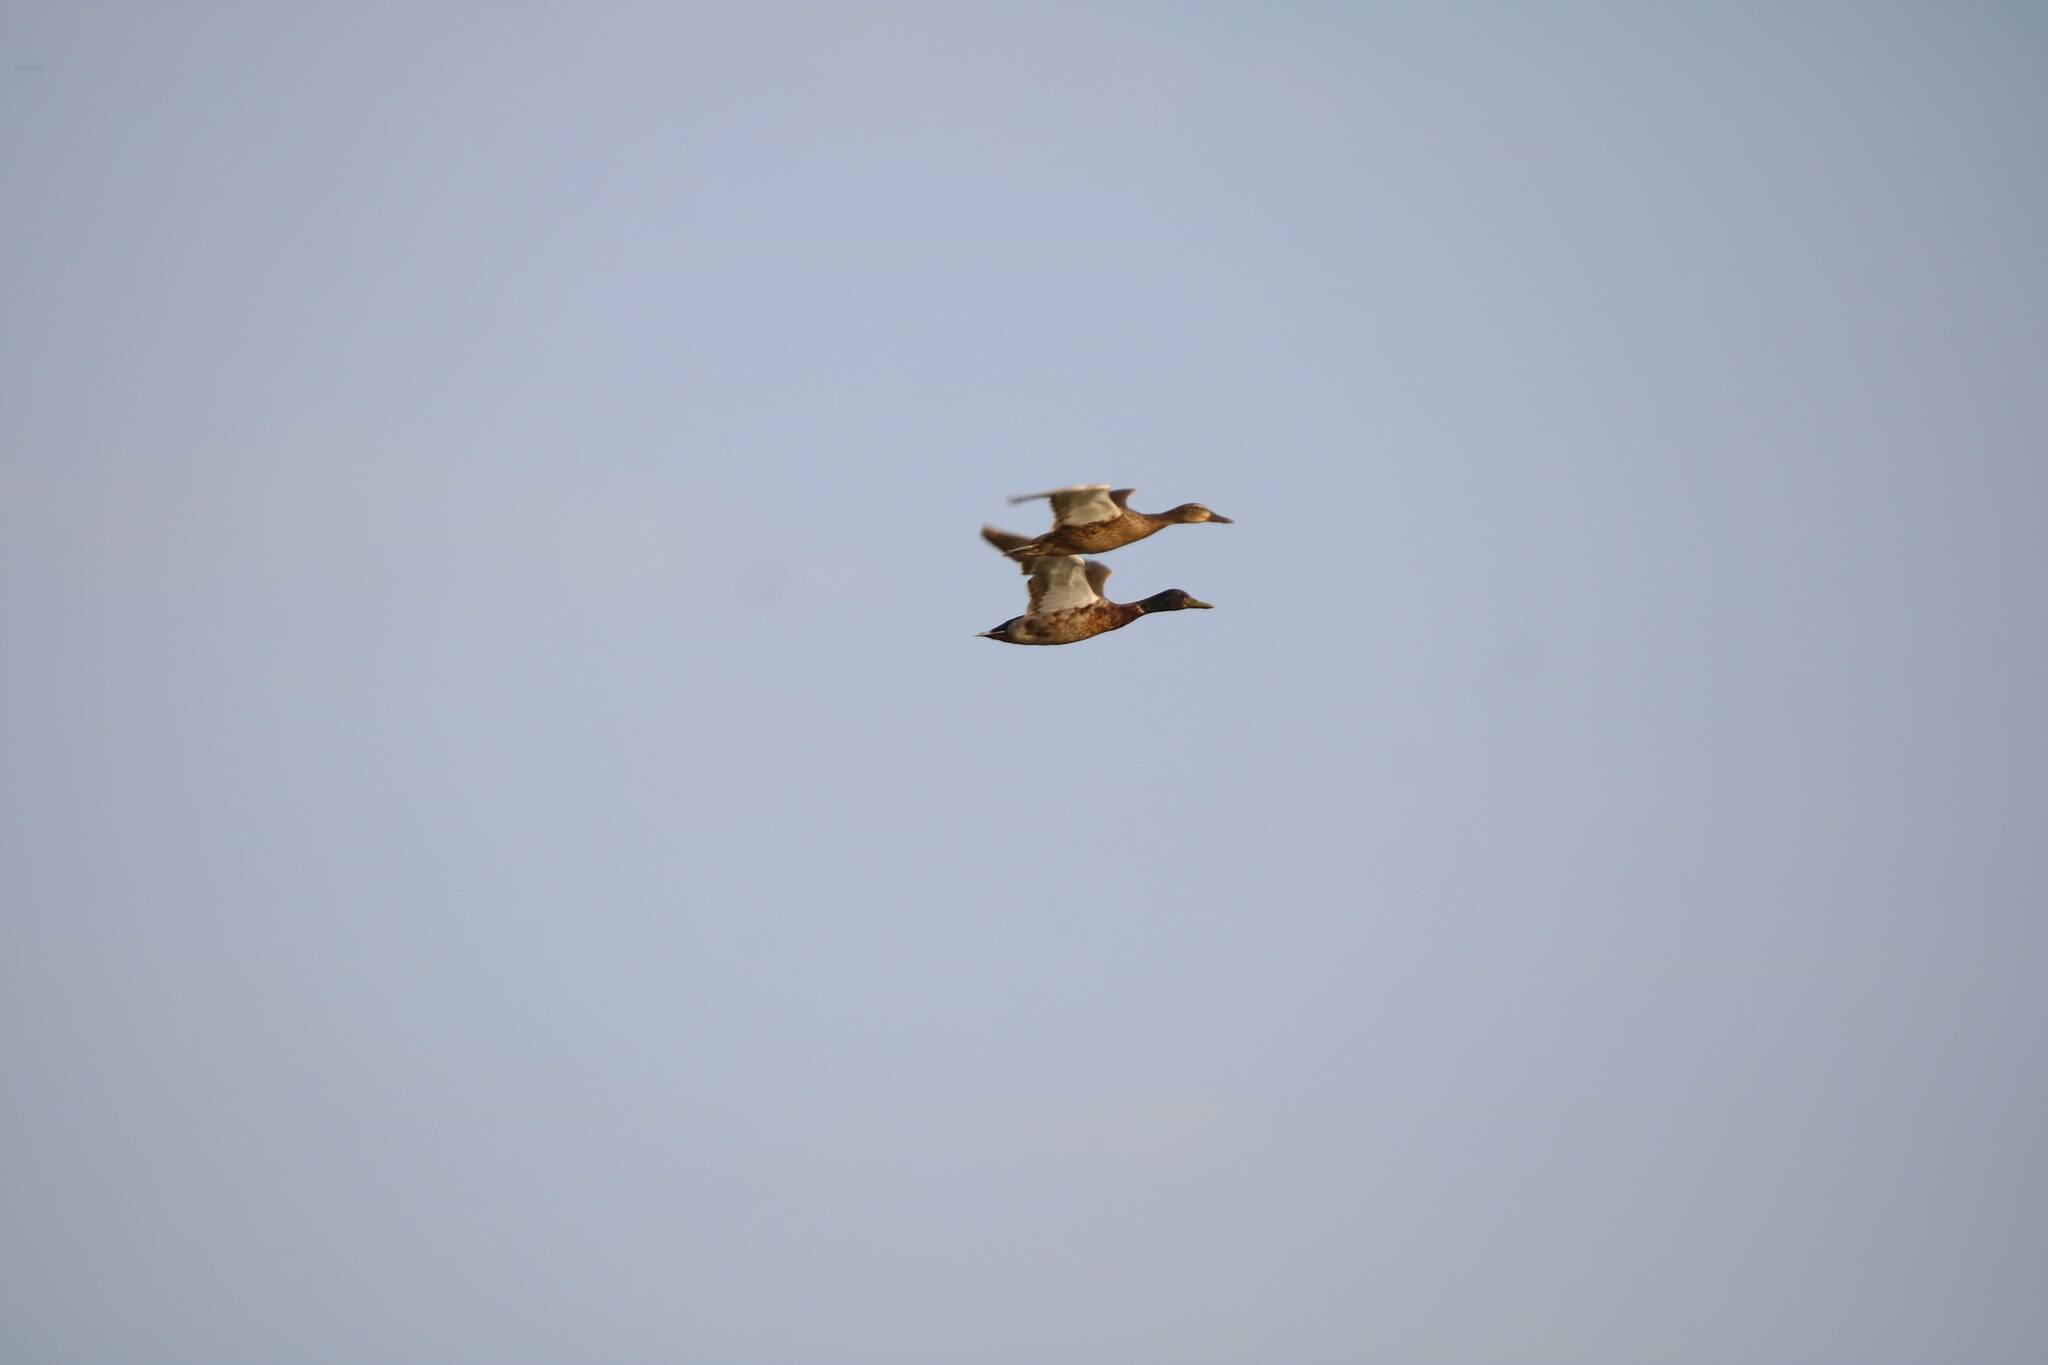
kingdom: Animalia
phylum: Chordata
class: Aves
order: Anseriformes
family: Anatidae
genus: Anas
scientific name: Anas platyrhynchos
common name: Mallard
